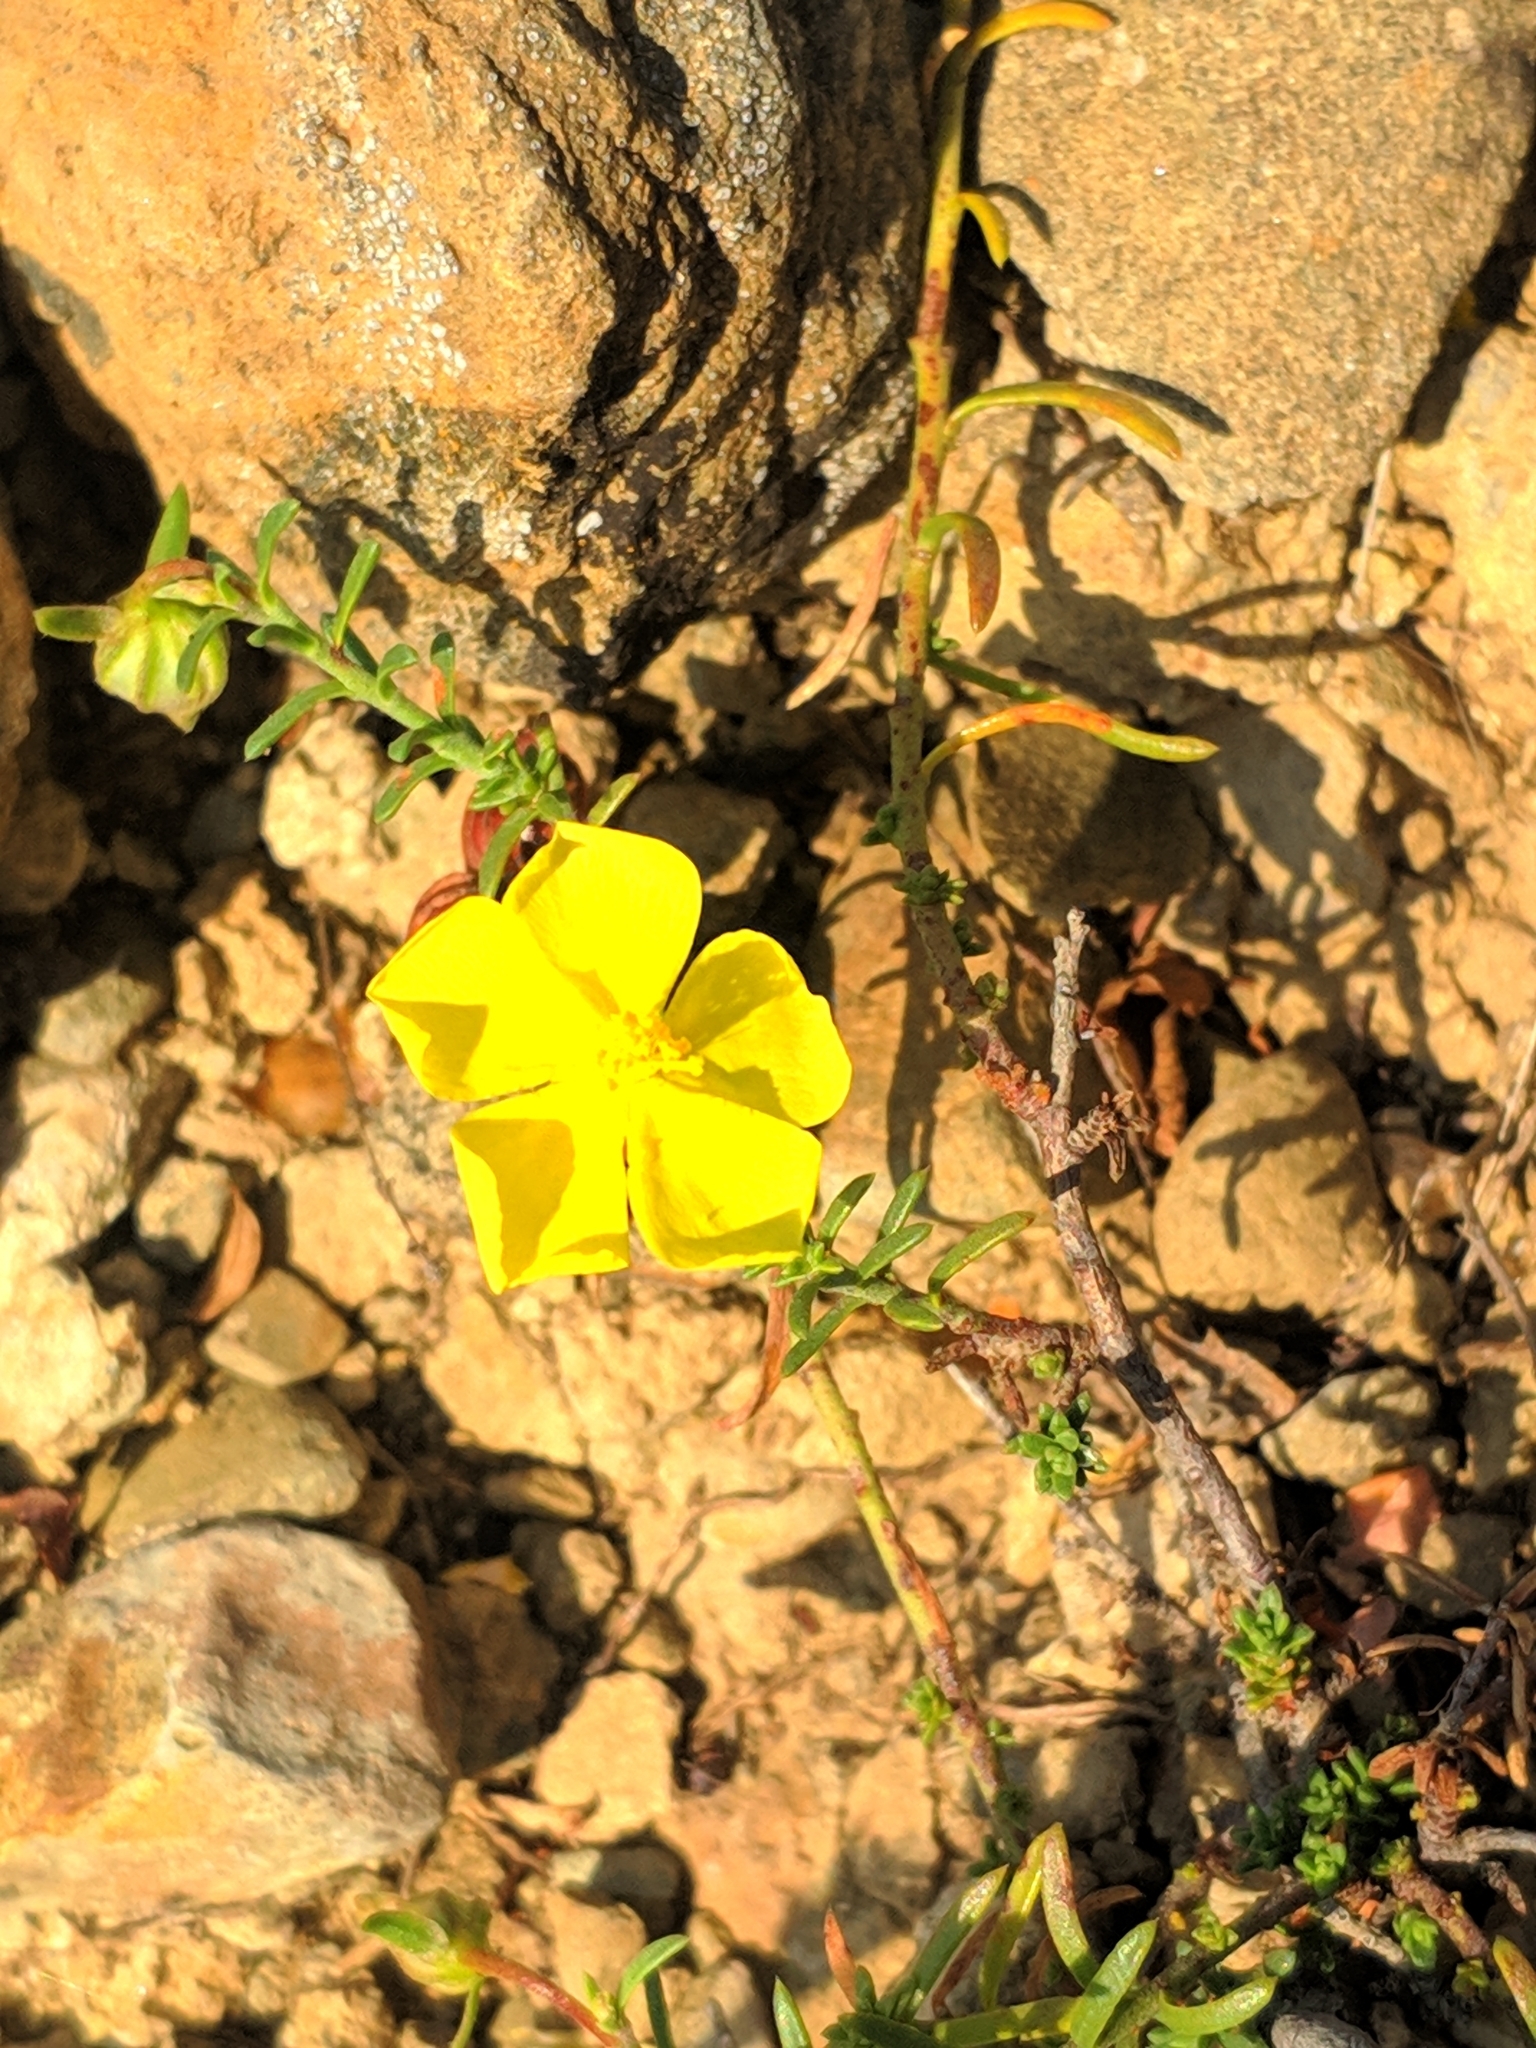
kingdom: Plantae
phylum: Tracheophyta
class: Magnoliopsida
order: Malvales
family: Cistaceae
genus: Fumana
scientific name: Fumana procumbens
